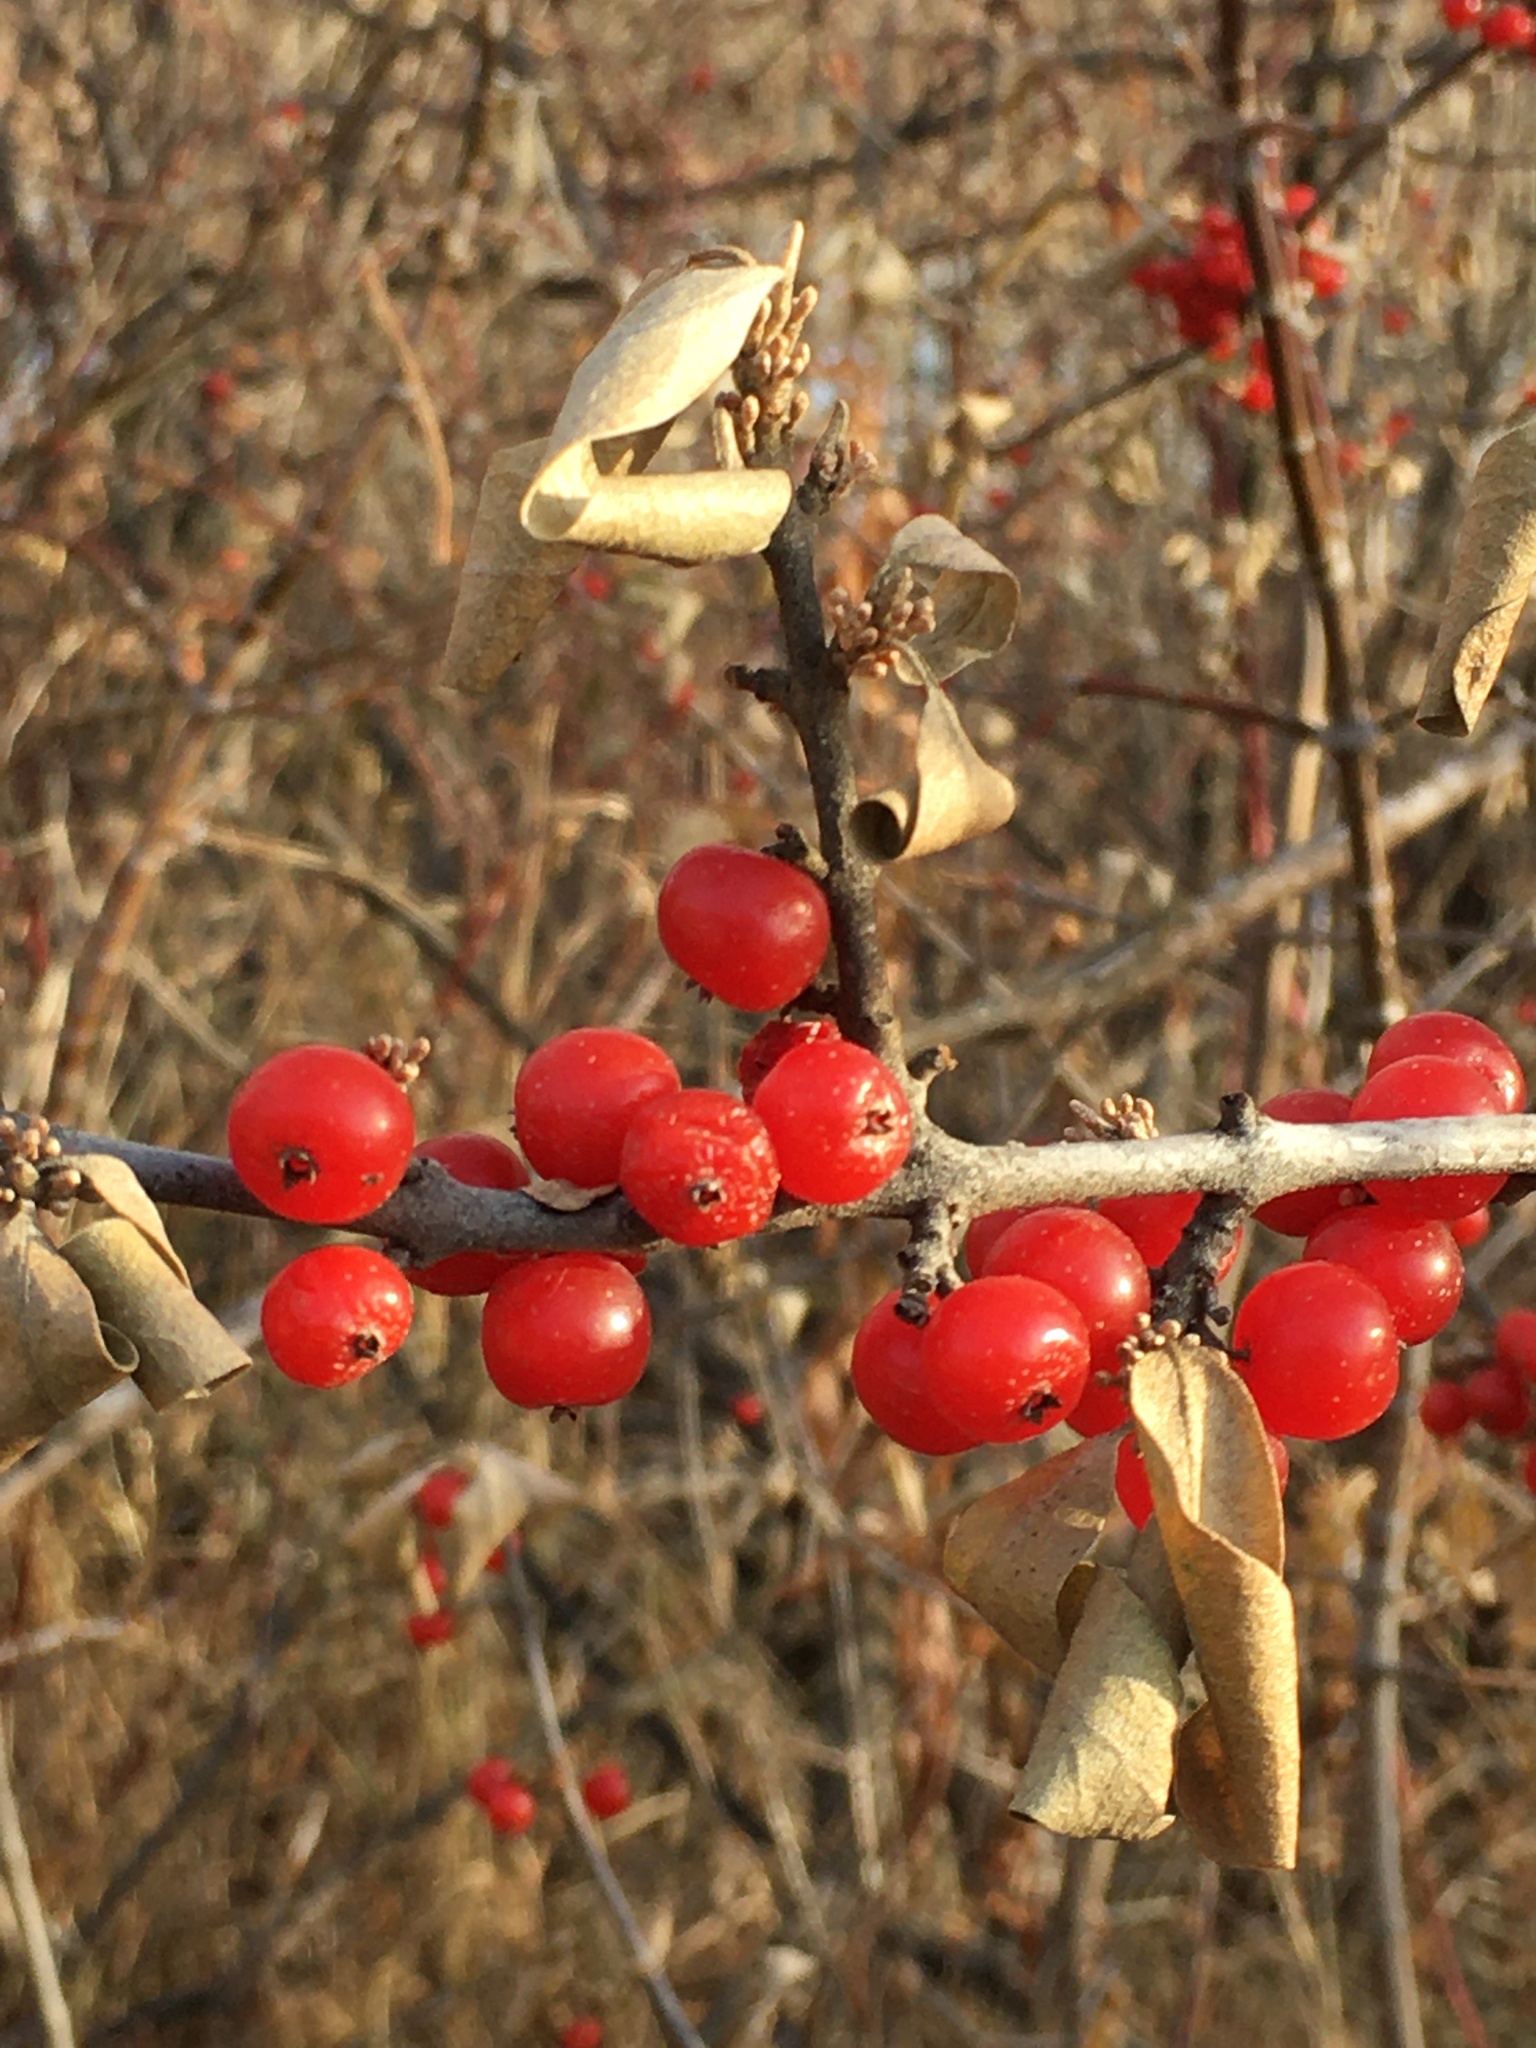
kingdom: Plantae
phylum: Tracheophyta
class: Magnoliopsida
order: Rosales
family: Elaeagnaceae
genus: Shepherdia
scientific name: Shepherdia argentea
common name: Silver buffaloberry
